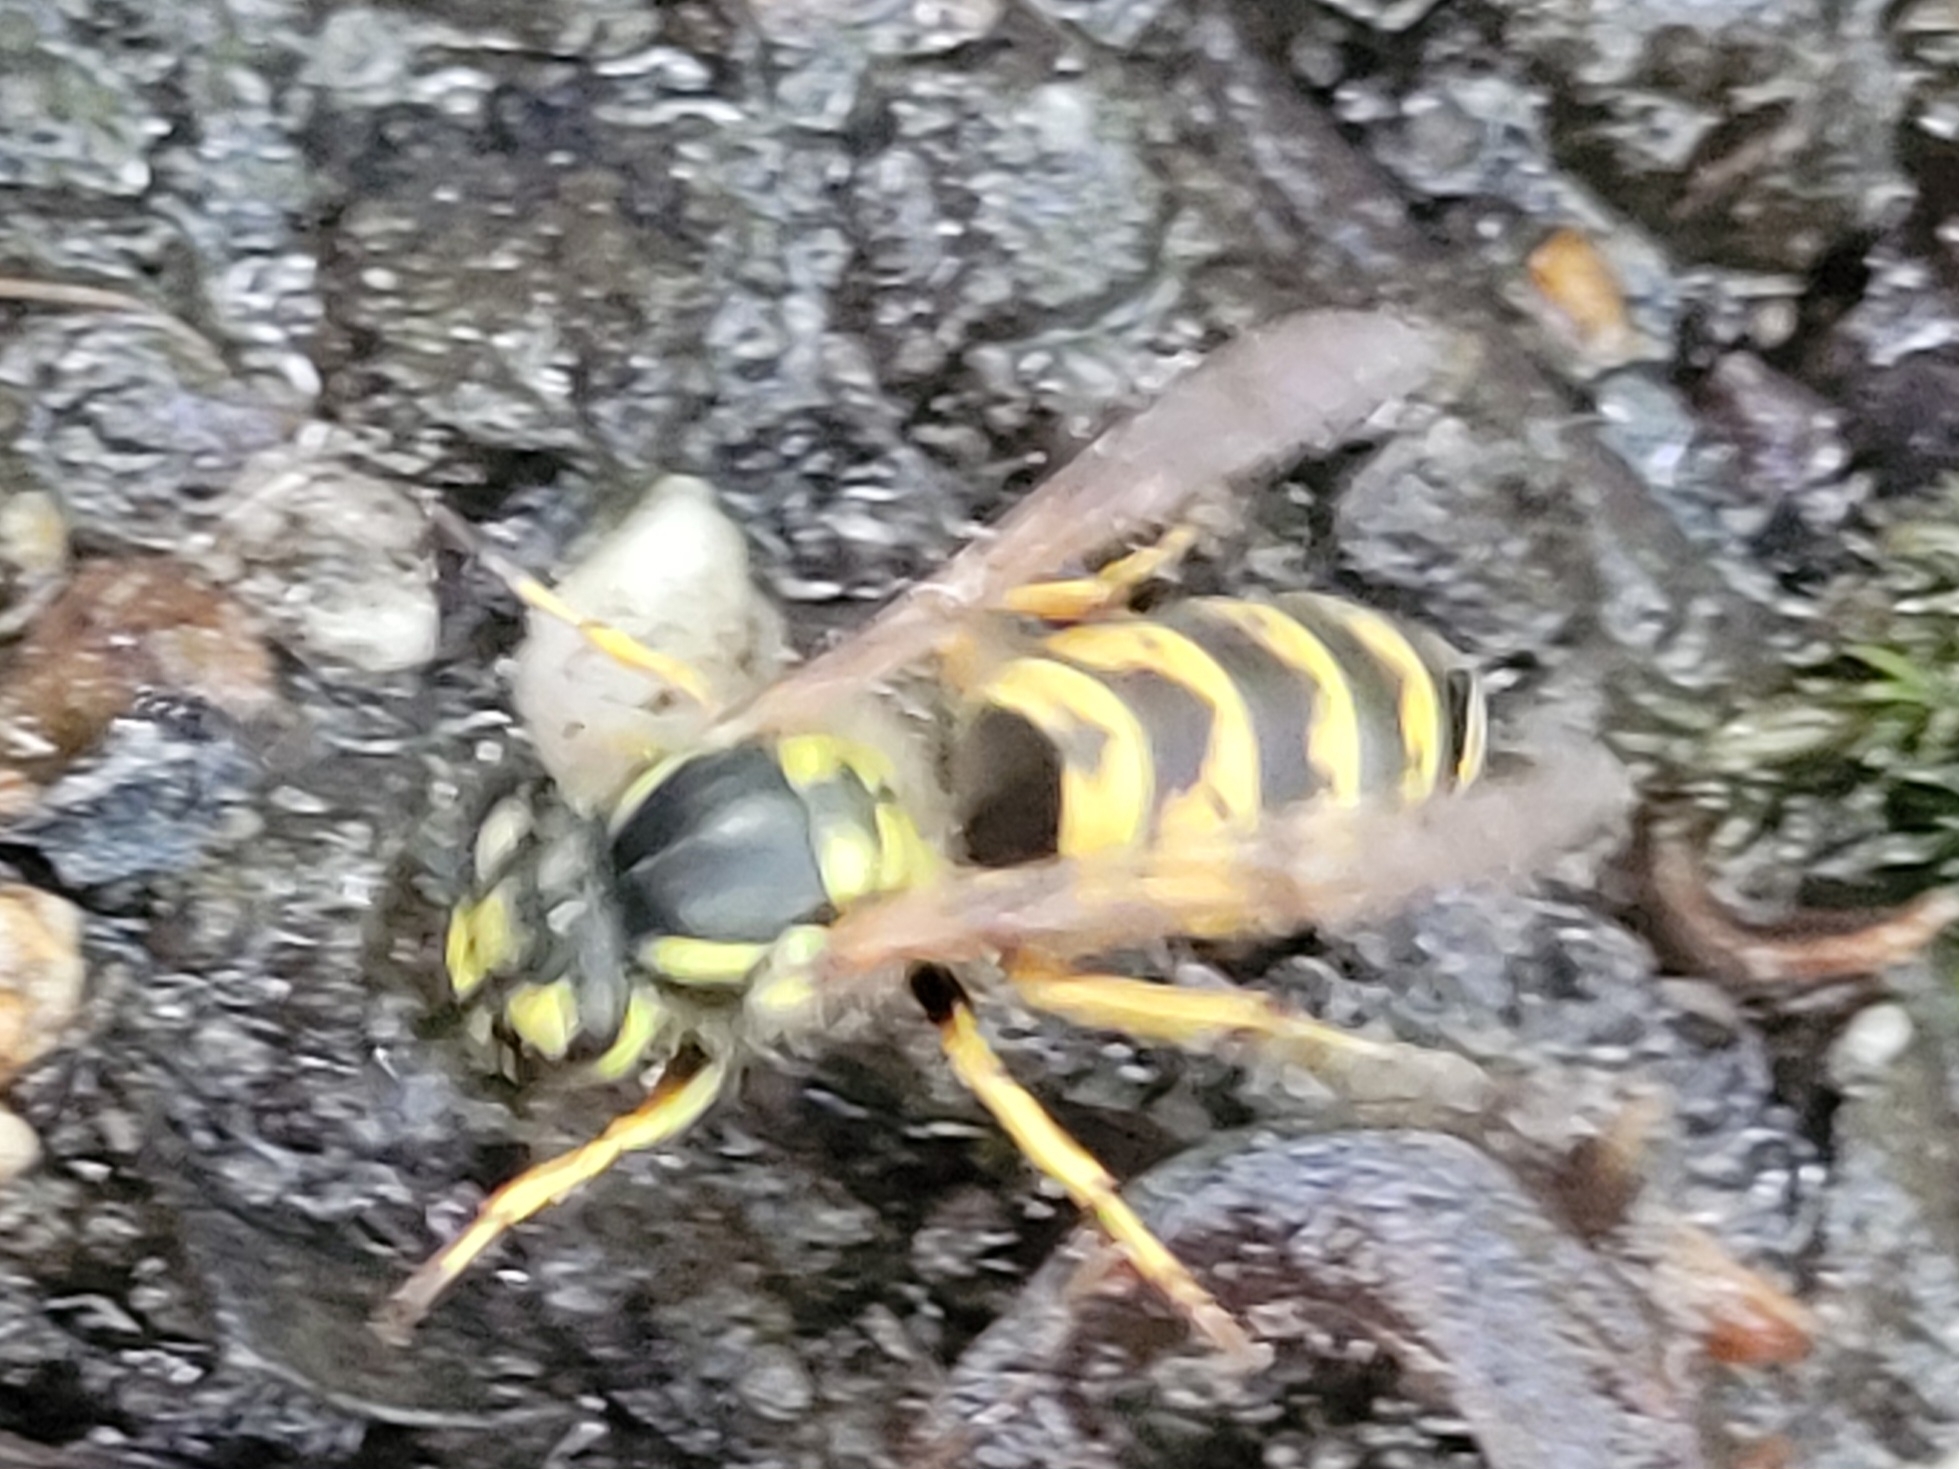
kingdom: Animalia
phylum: Arthropoda
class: Insecta
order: Hymenoptera
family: Vespidae
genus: Vespula
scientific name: Vespula vulgaris
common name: Common wasp
